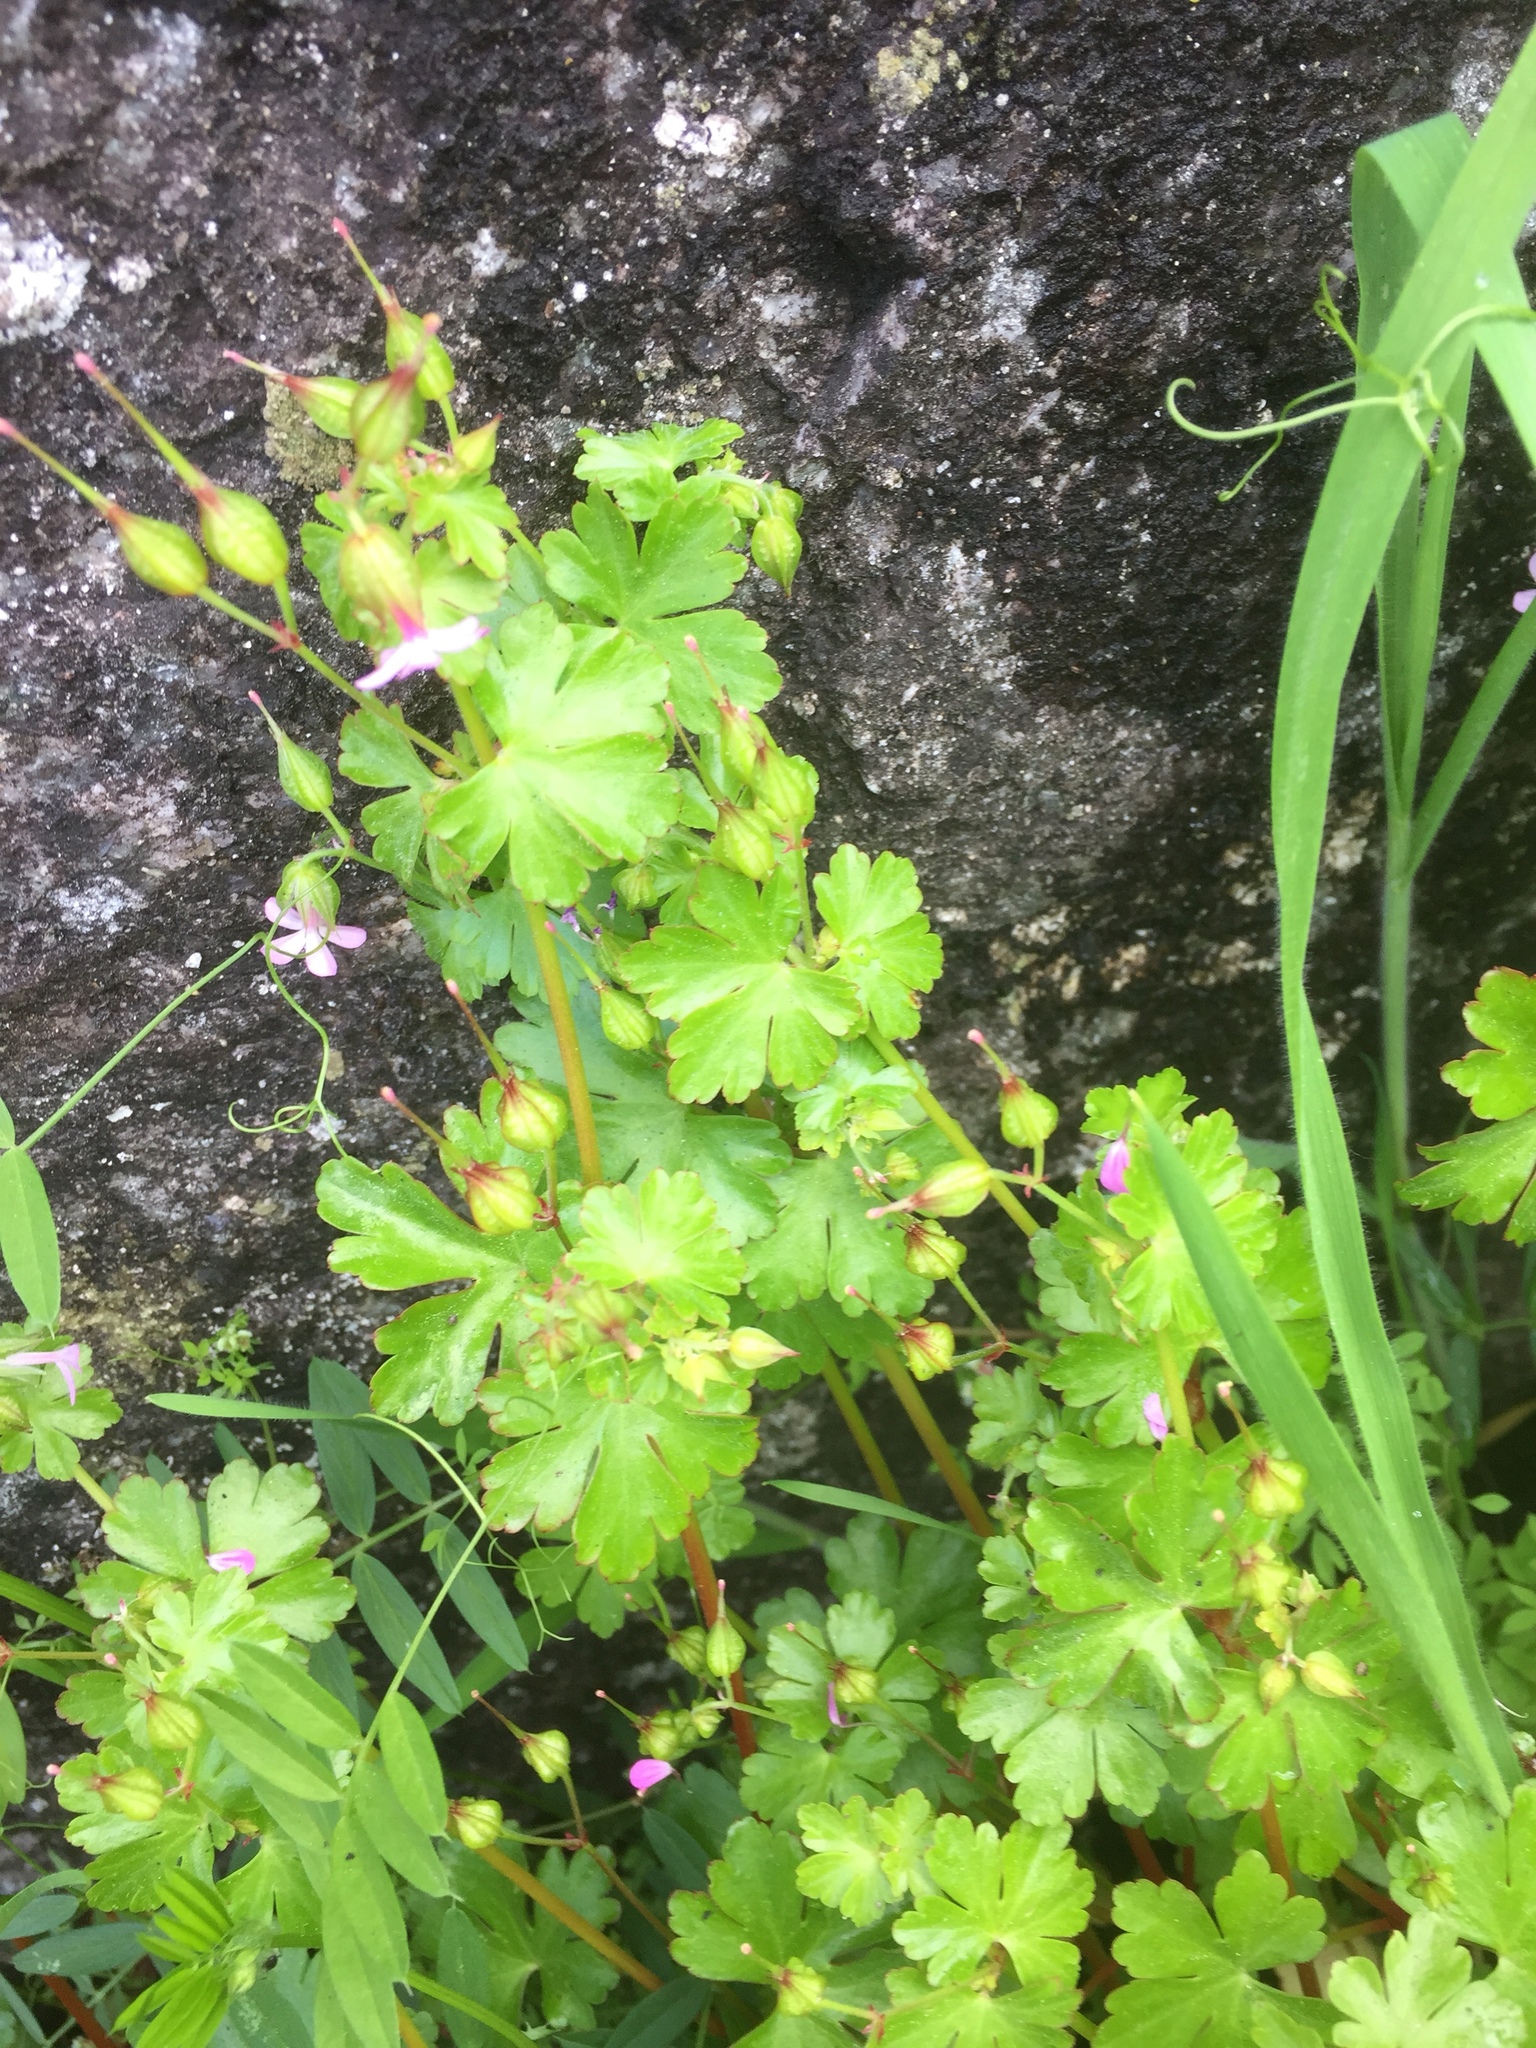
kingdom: Plantae
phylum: Tracheophyta
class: Magnoliopsida
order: Geraniales
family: Geraniaceae
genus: Geranium
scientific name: Geranium lucidum
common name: Shining crane's-bill
